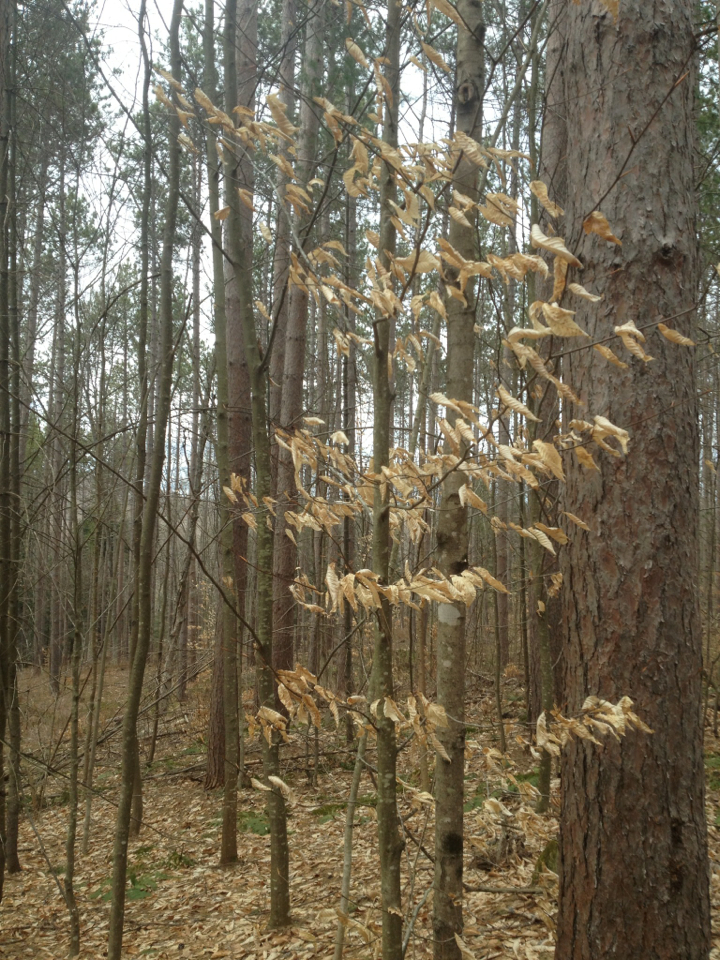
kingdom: Plantae
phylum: Tracheophyta
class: Magnoliopsida
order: Fagales
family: Fagaceae
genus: Fagus
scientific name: Fagus grandifolia
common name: American beech
